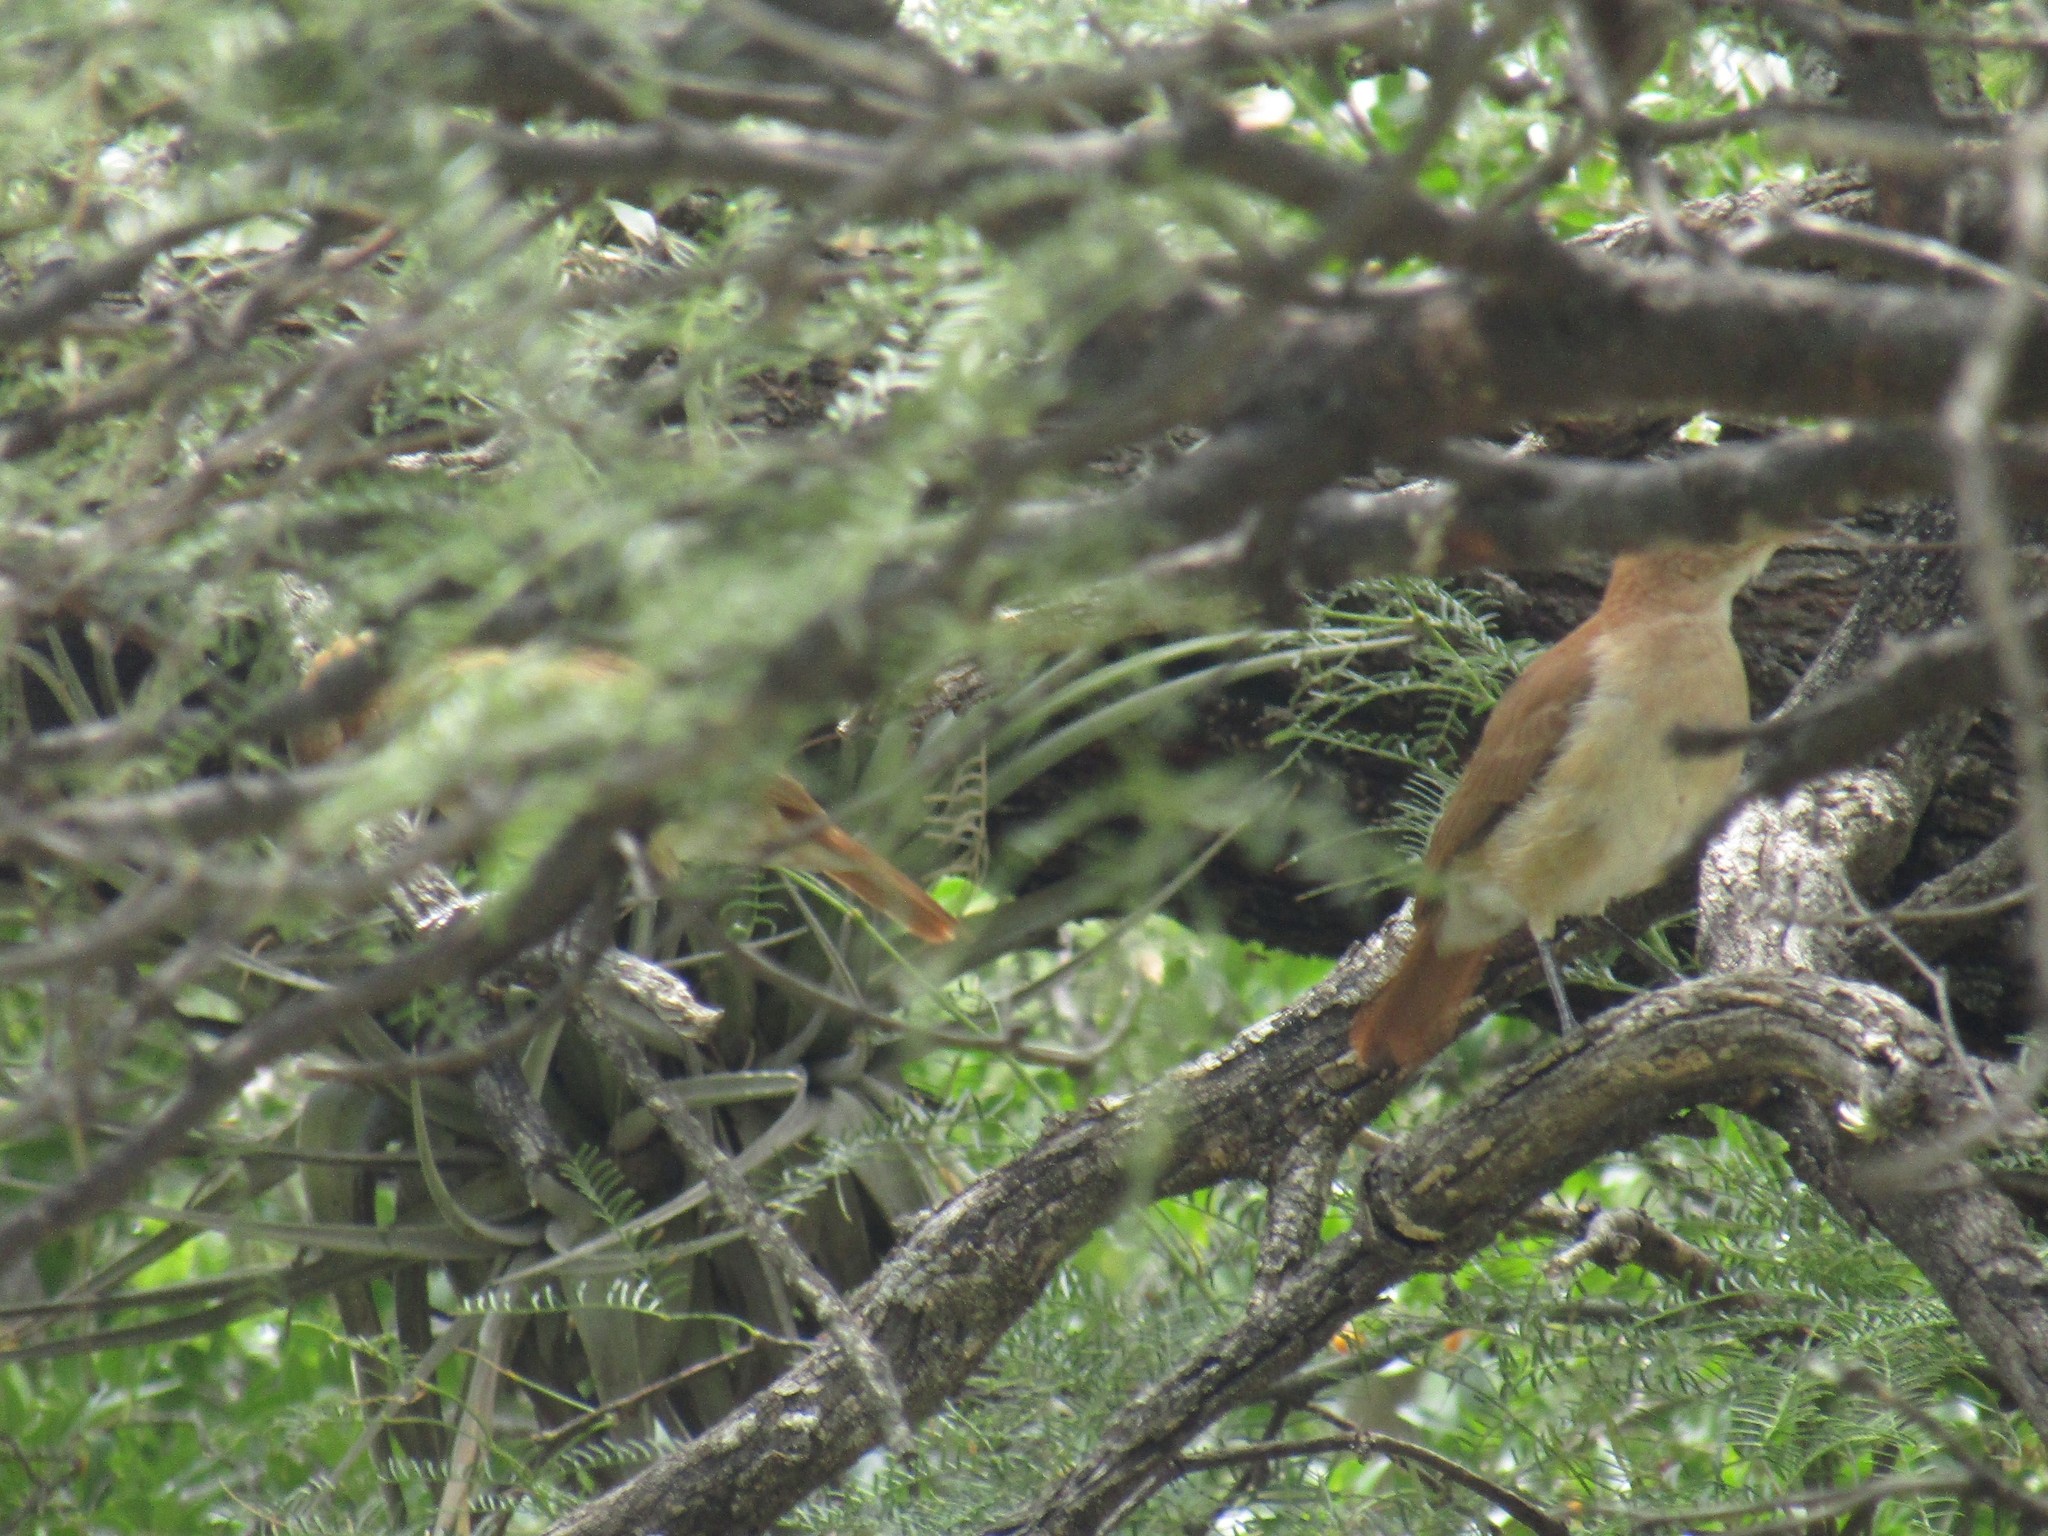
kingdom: Animalia
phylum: Chordata
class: Aves
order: Passeriformes
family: Furnariidae
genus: Furnarius
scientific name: Furnarius rufus
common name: Rufous hornero
